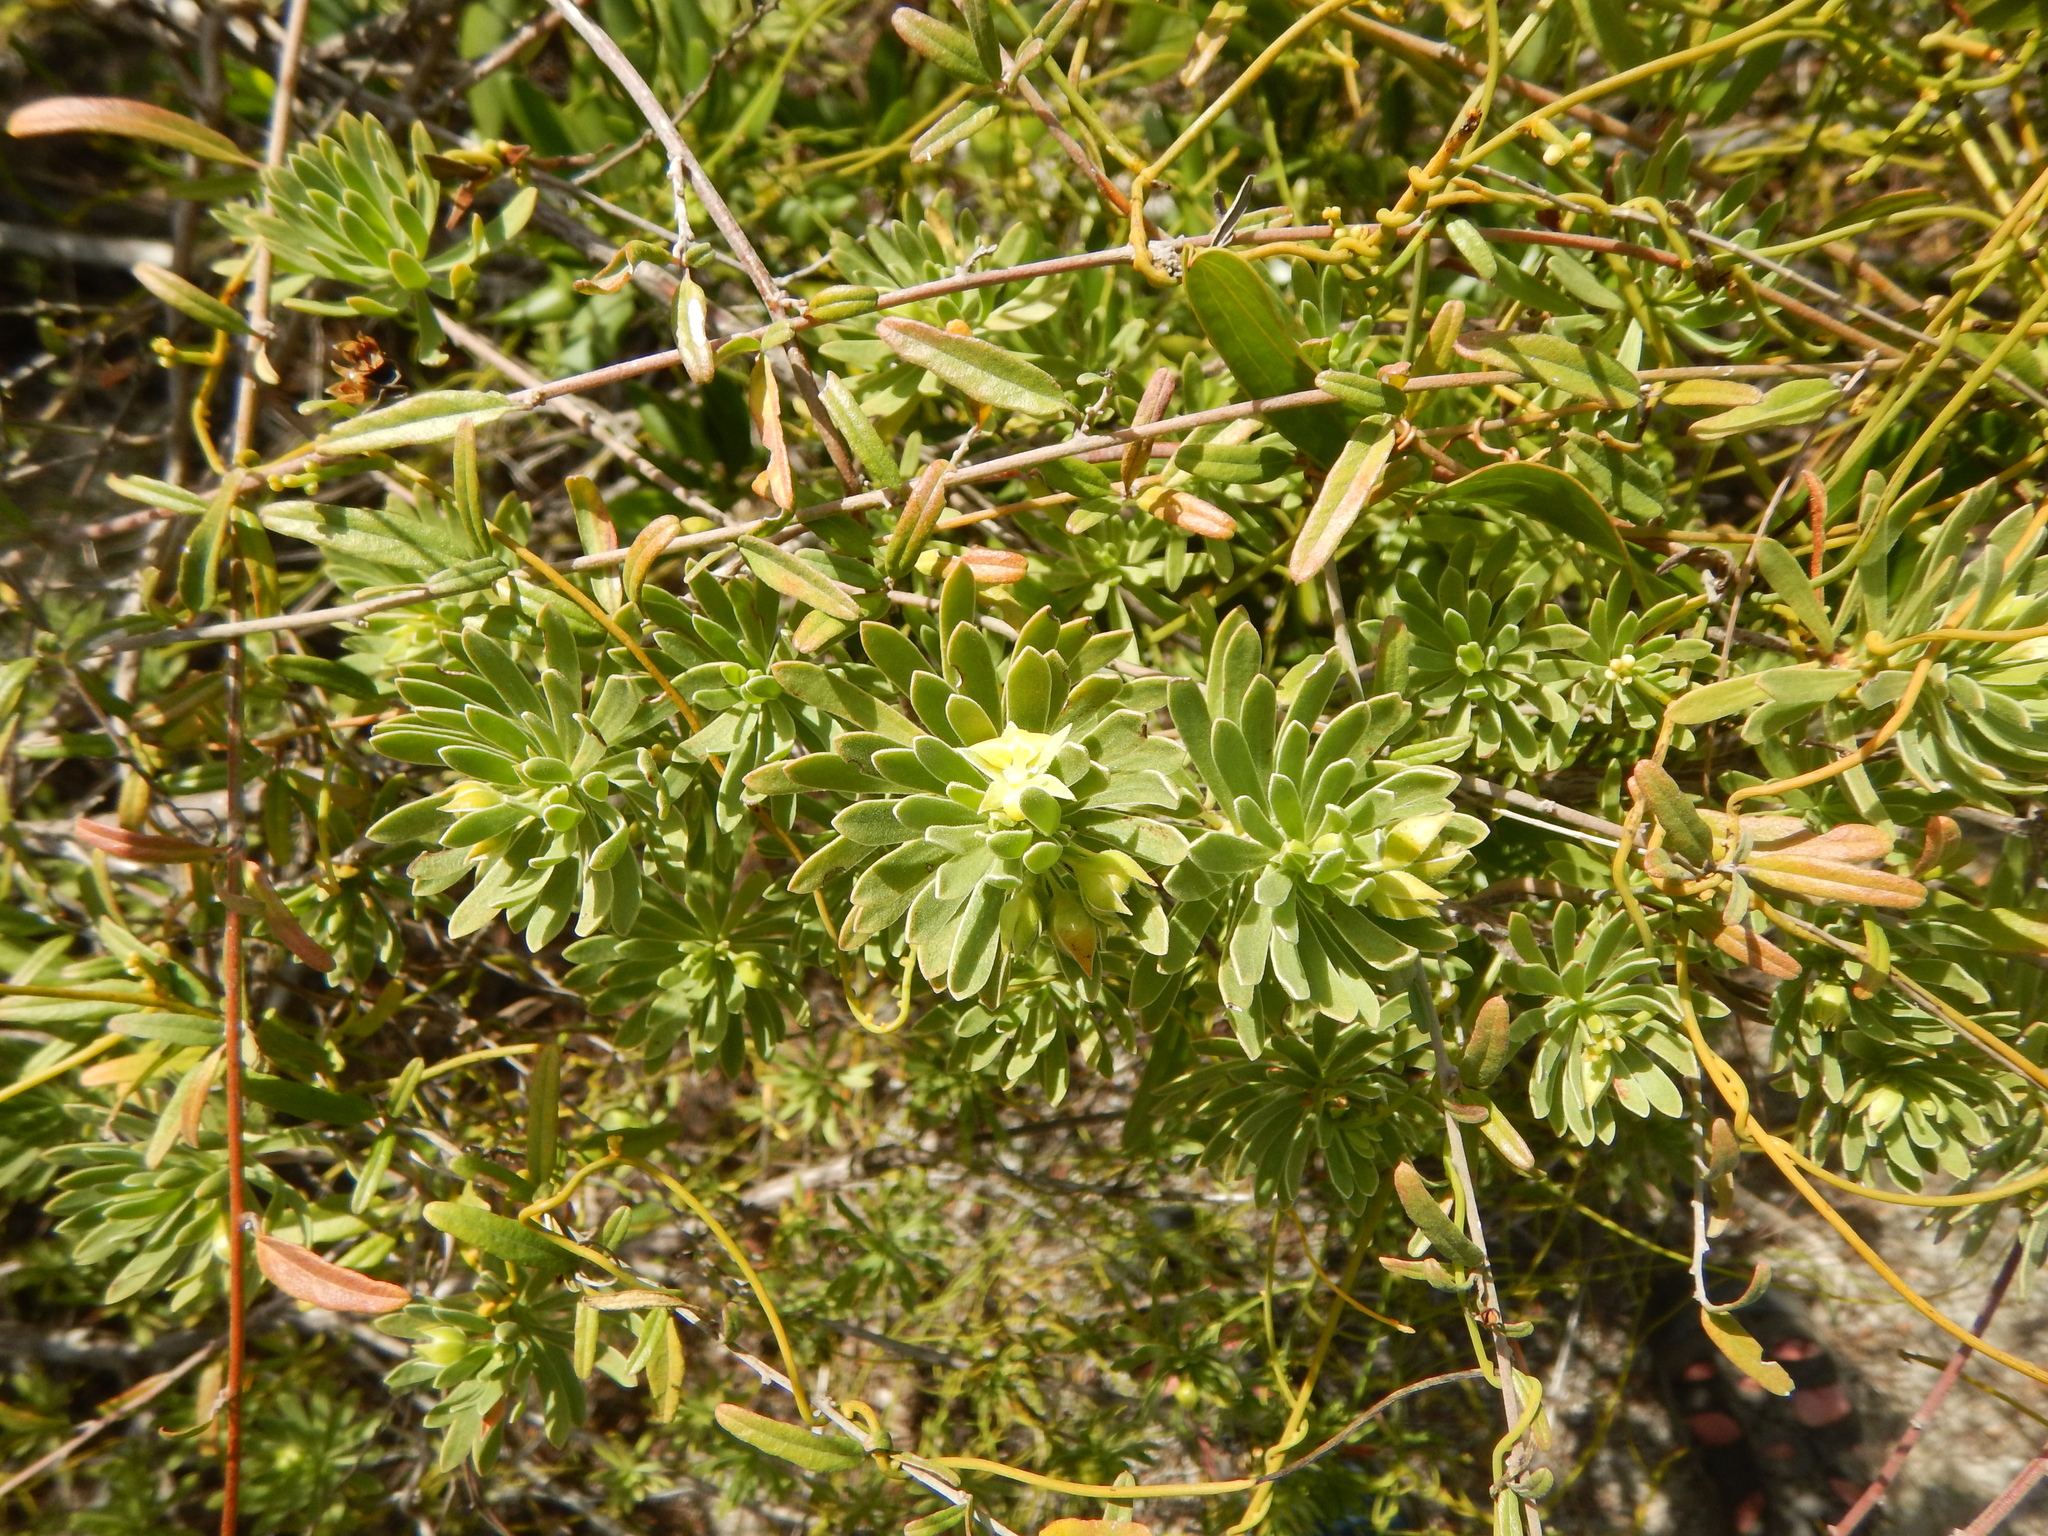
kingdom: Plantae
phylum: Tracheophyta
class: Magnoliopsida
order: Fabales
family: Surianaceae
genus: Suriana
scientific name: Suriana maritima
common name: Bay-cedar
